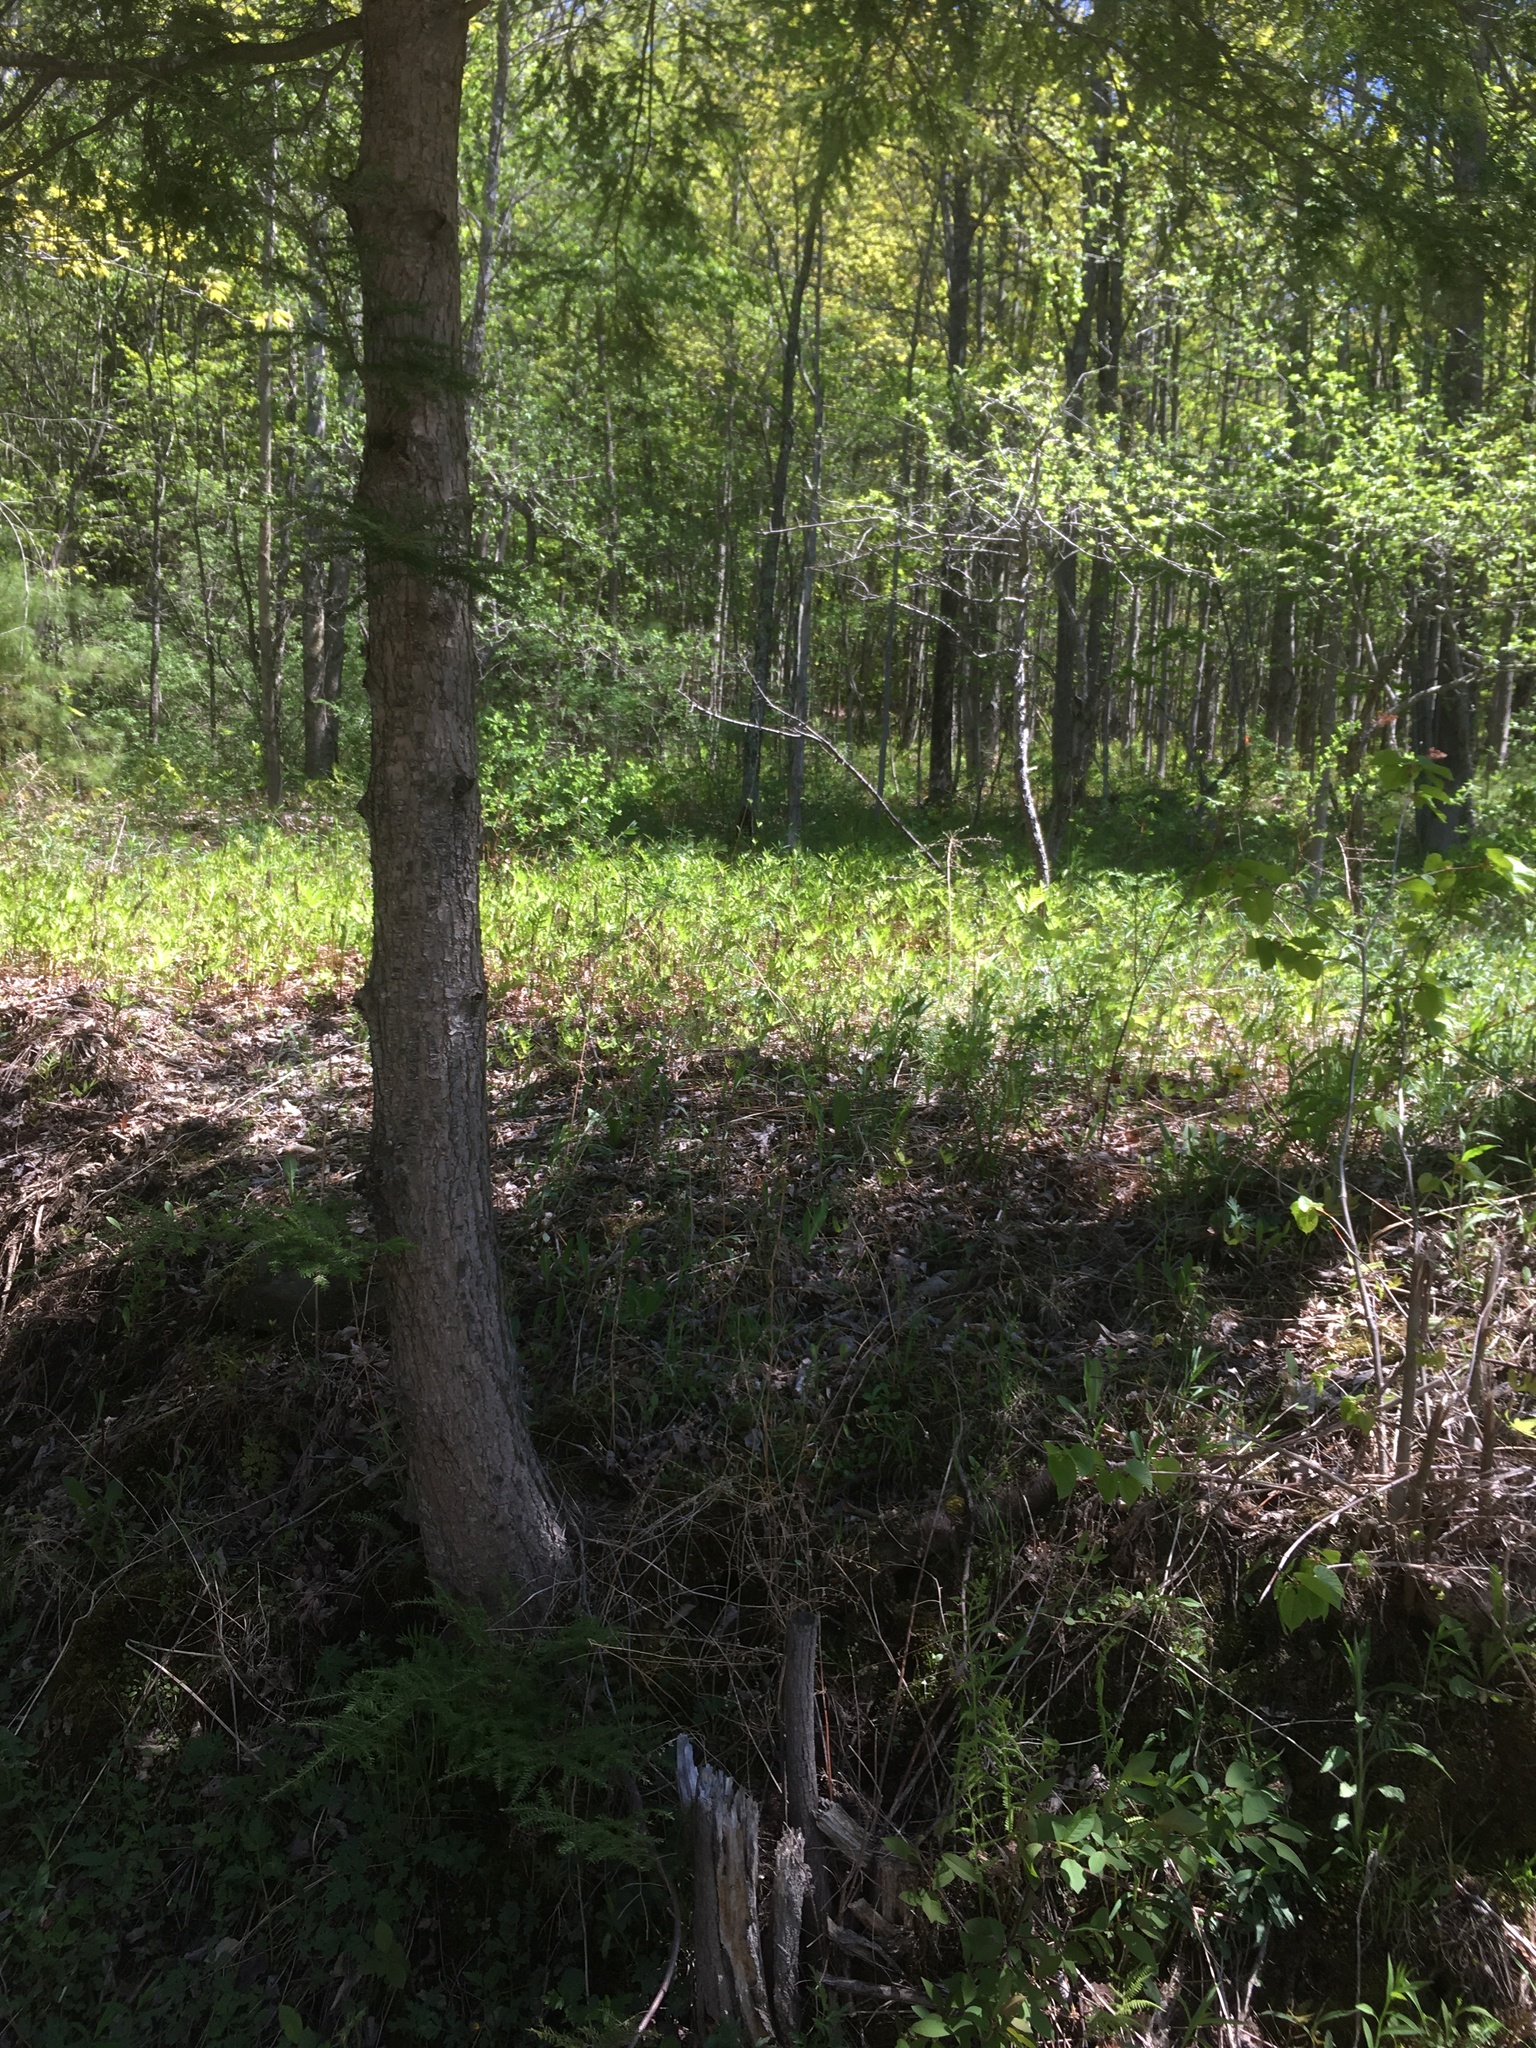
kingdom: Plantae
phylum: Tracheophyta
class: Polypodiopsida
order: Polypodiales
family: Onocleaceae
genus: Onoclea
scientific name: Onoclea sensibilis
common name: Sensitive fern
